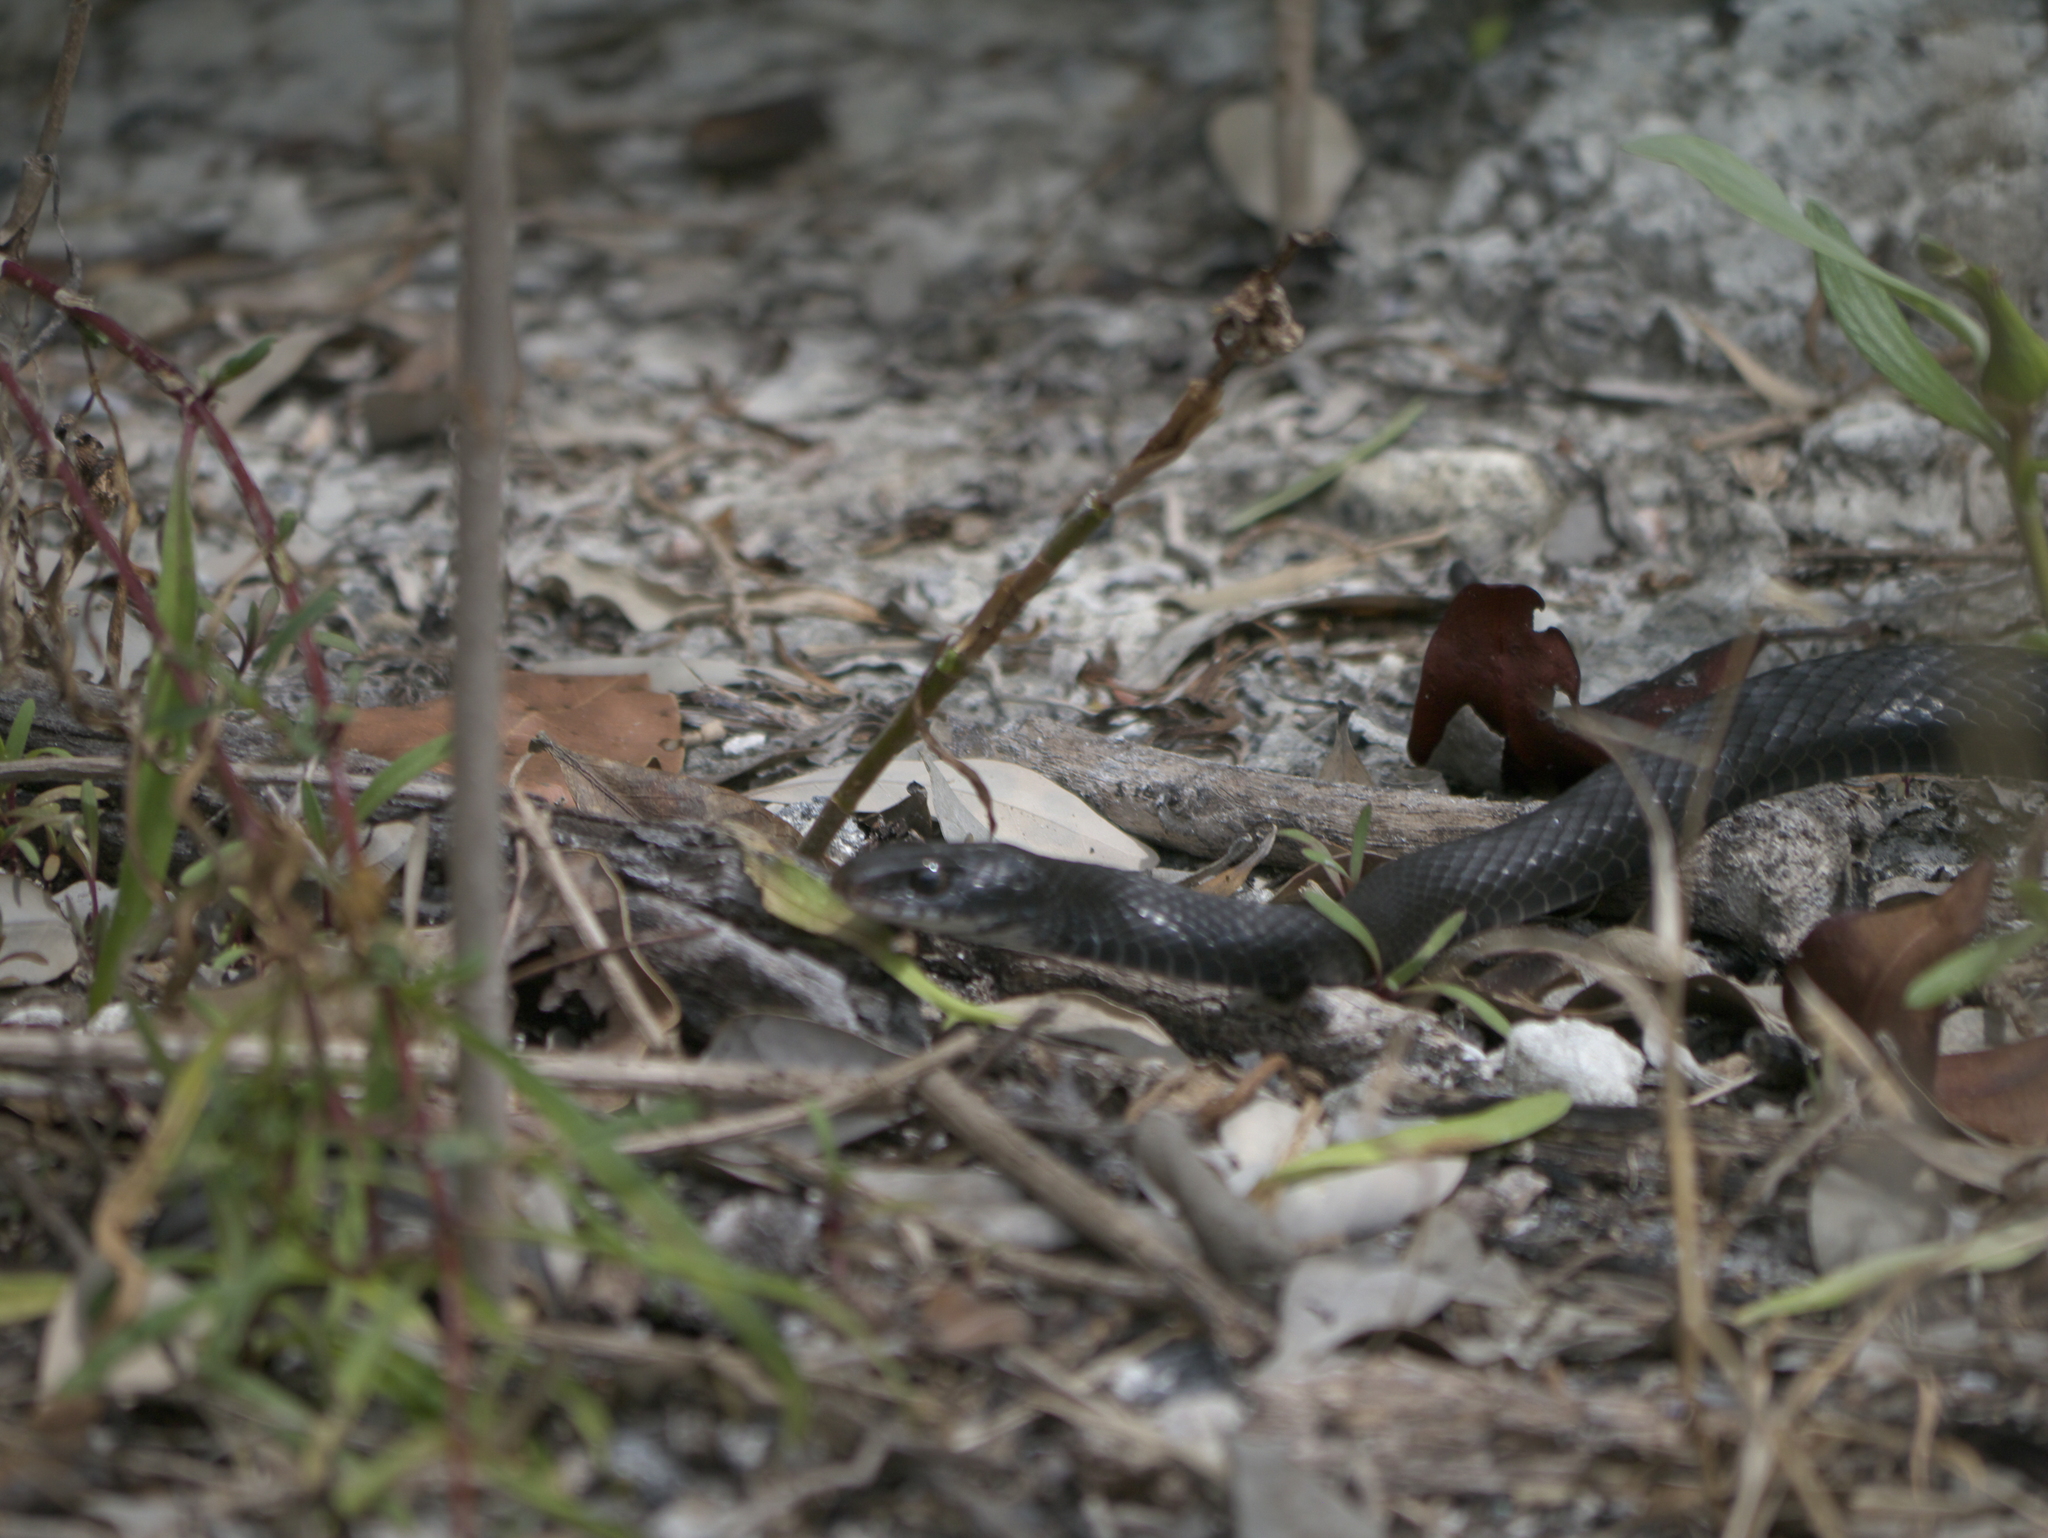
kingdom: Animalia
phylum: Chordata
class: Squamata
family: Colubridae
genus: Coluber
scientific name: Coluber constrictor
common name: Eastern racer
